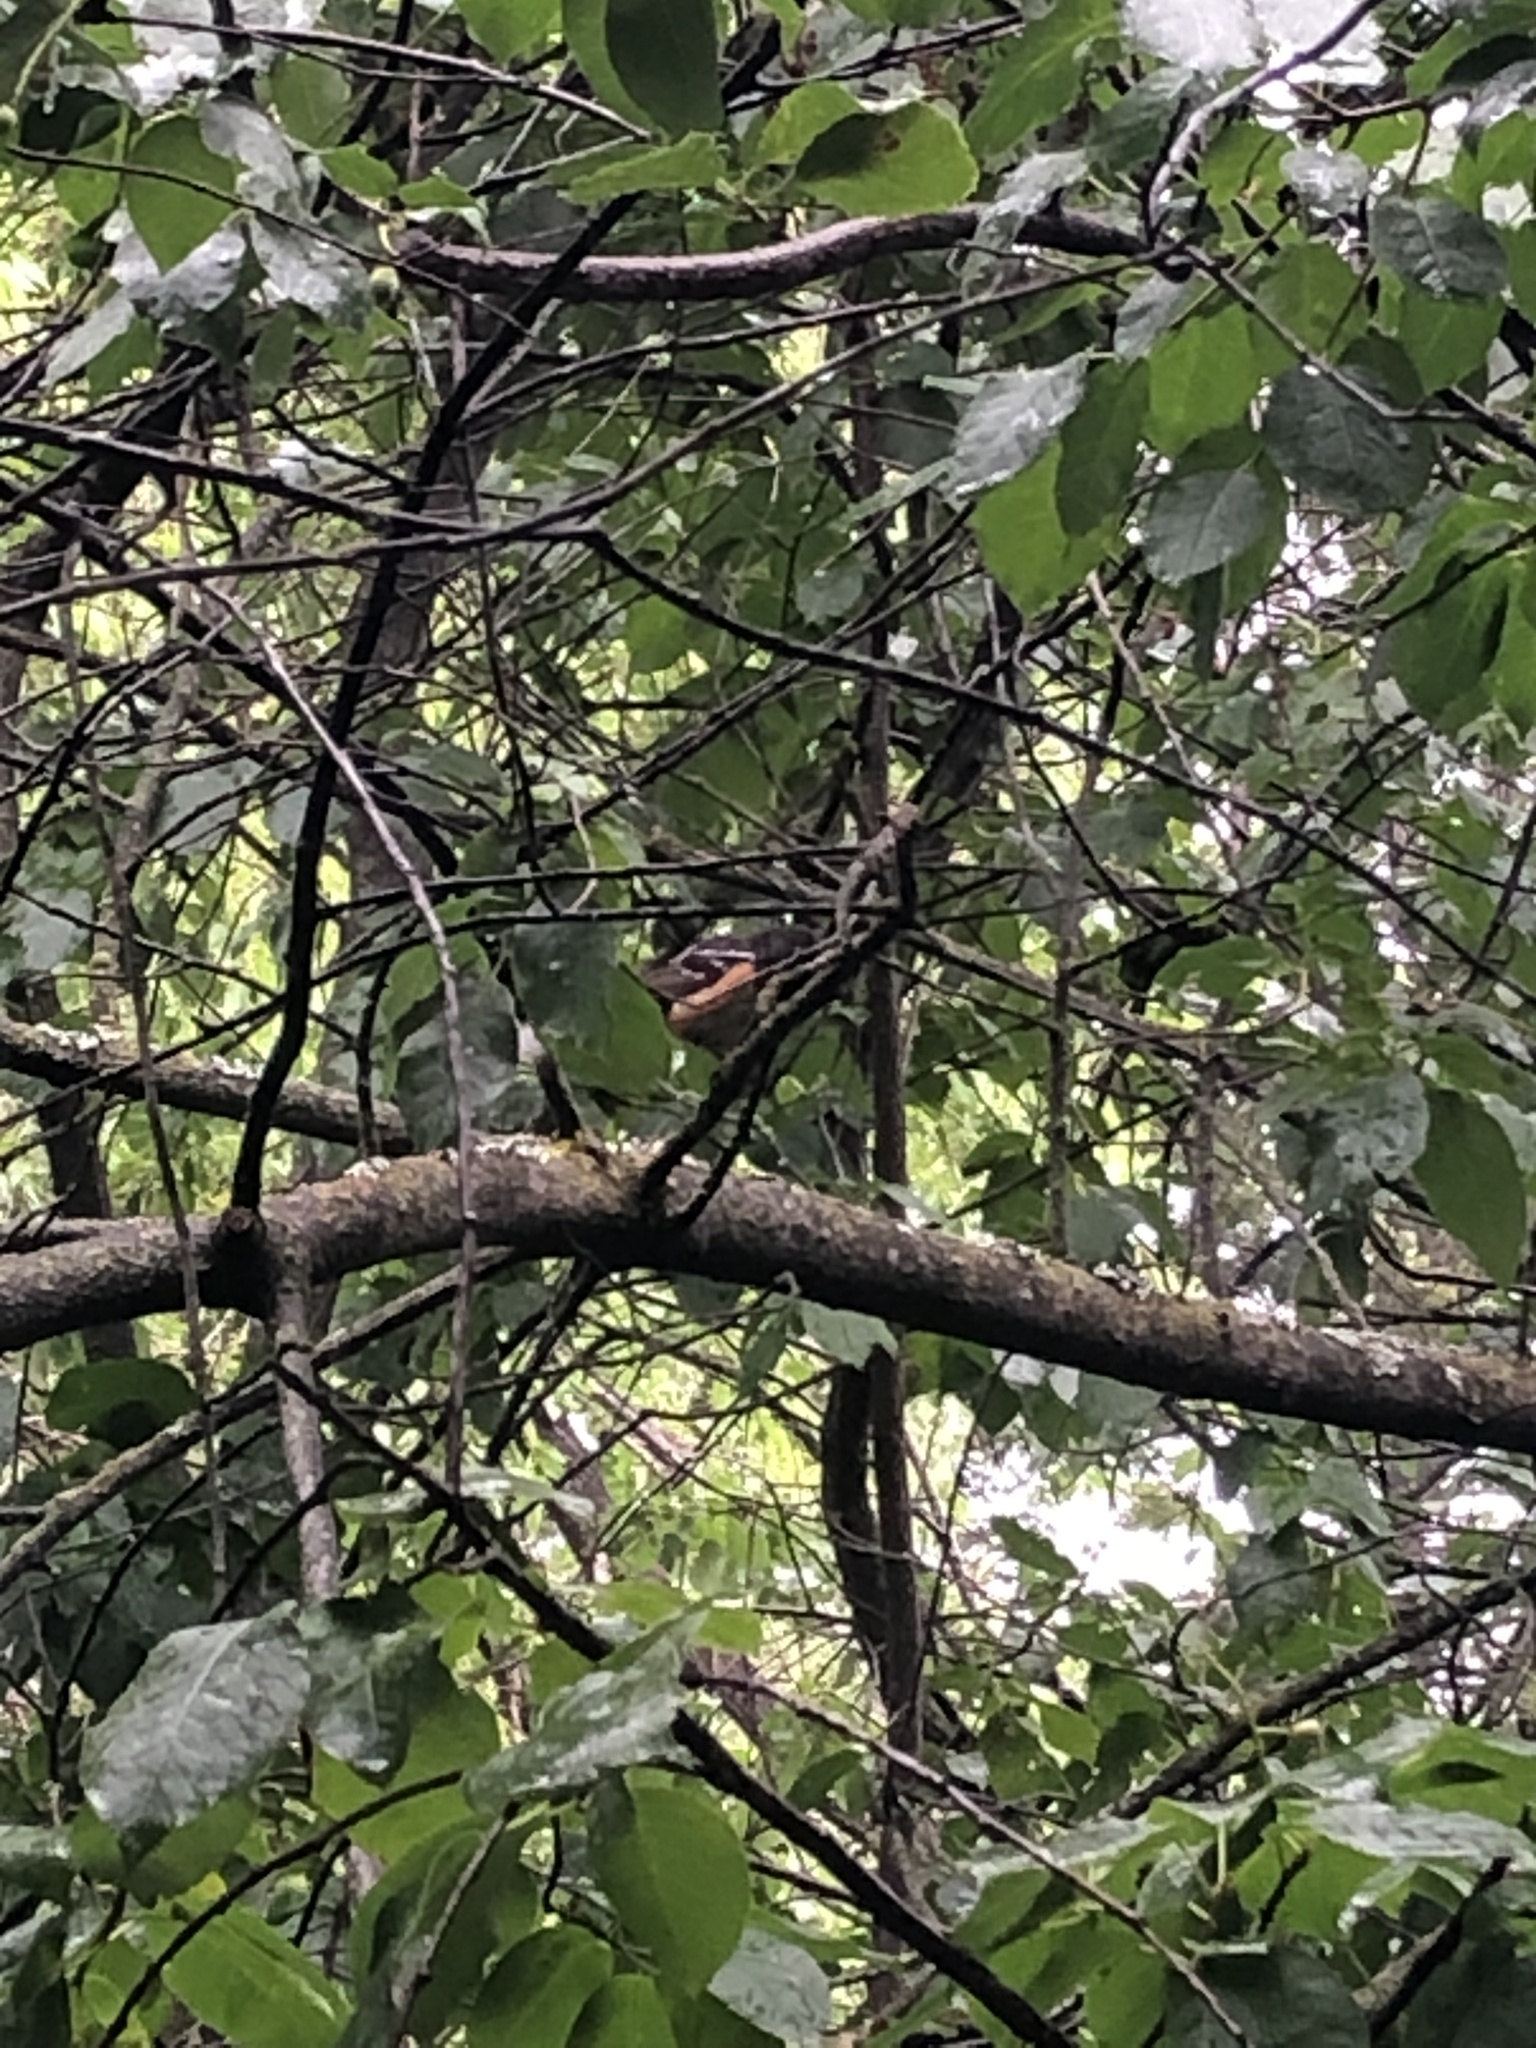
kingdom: Animalia
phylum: Chordata
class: Aves
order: Passeriformes
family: Passerellidae
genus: Pipilo
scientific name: Pipilo maculatus
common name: Spotted towhee
